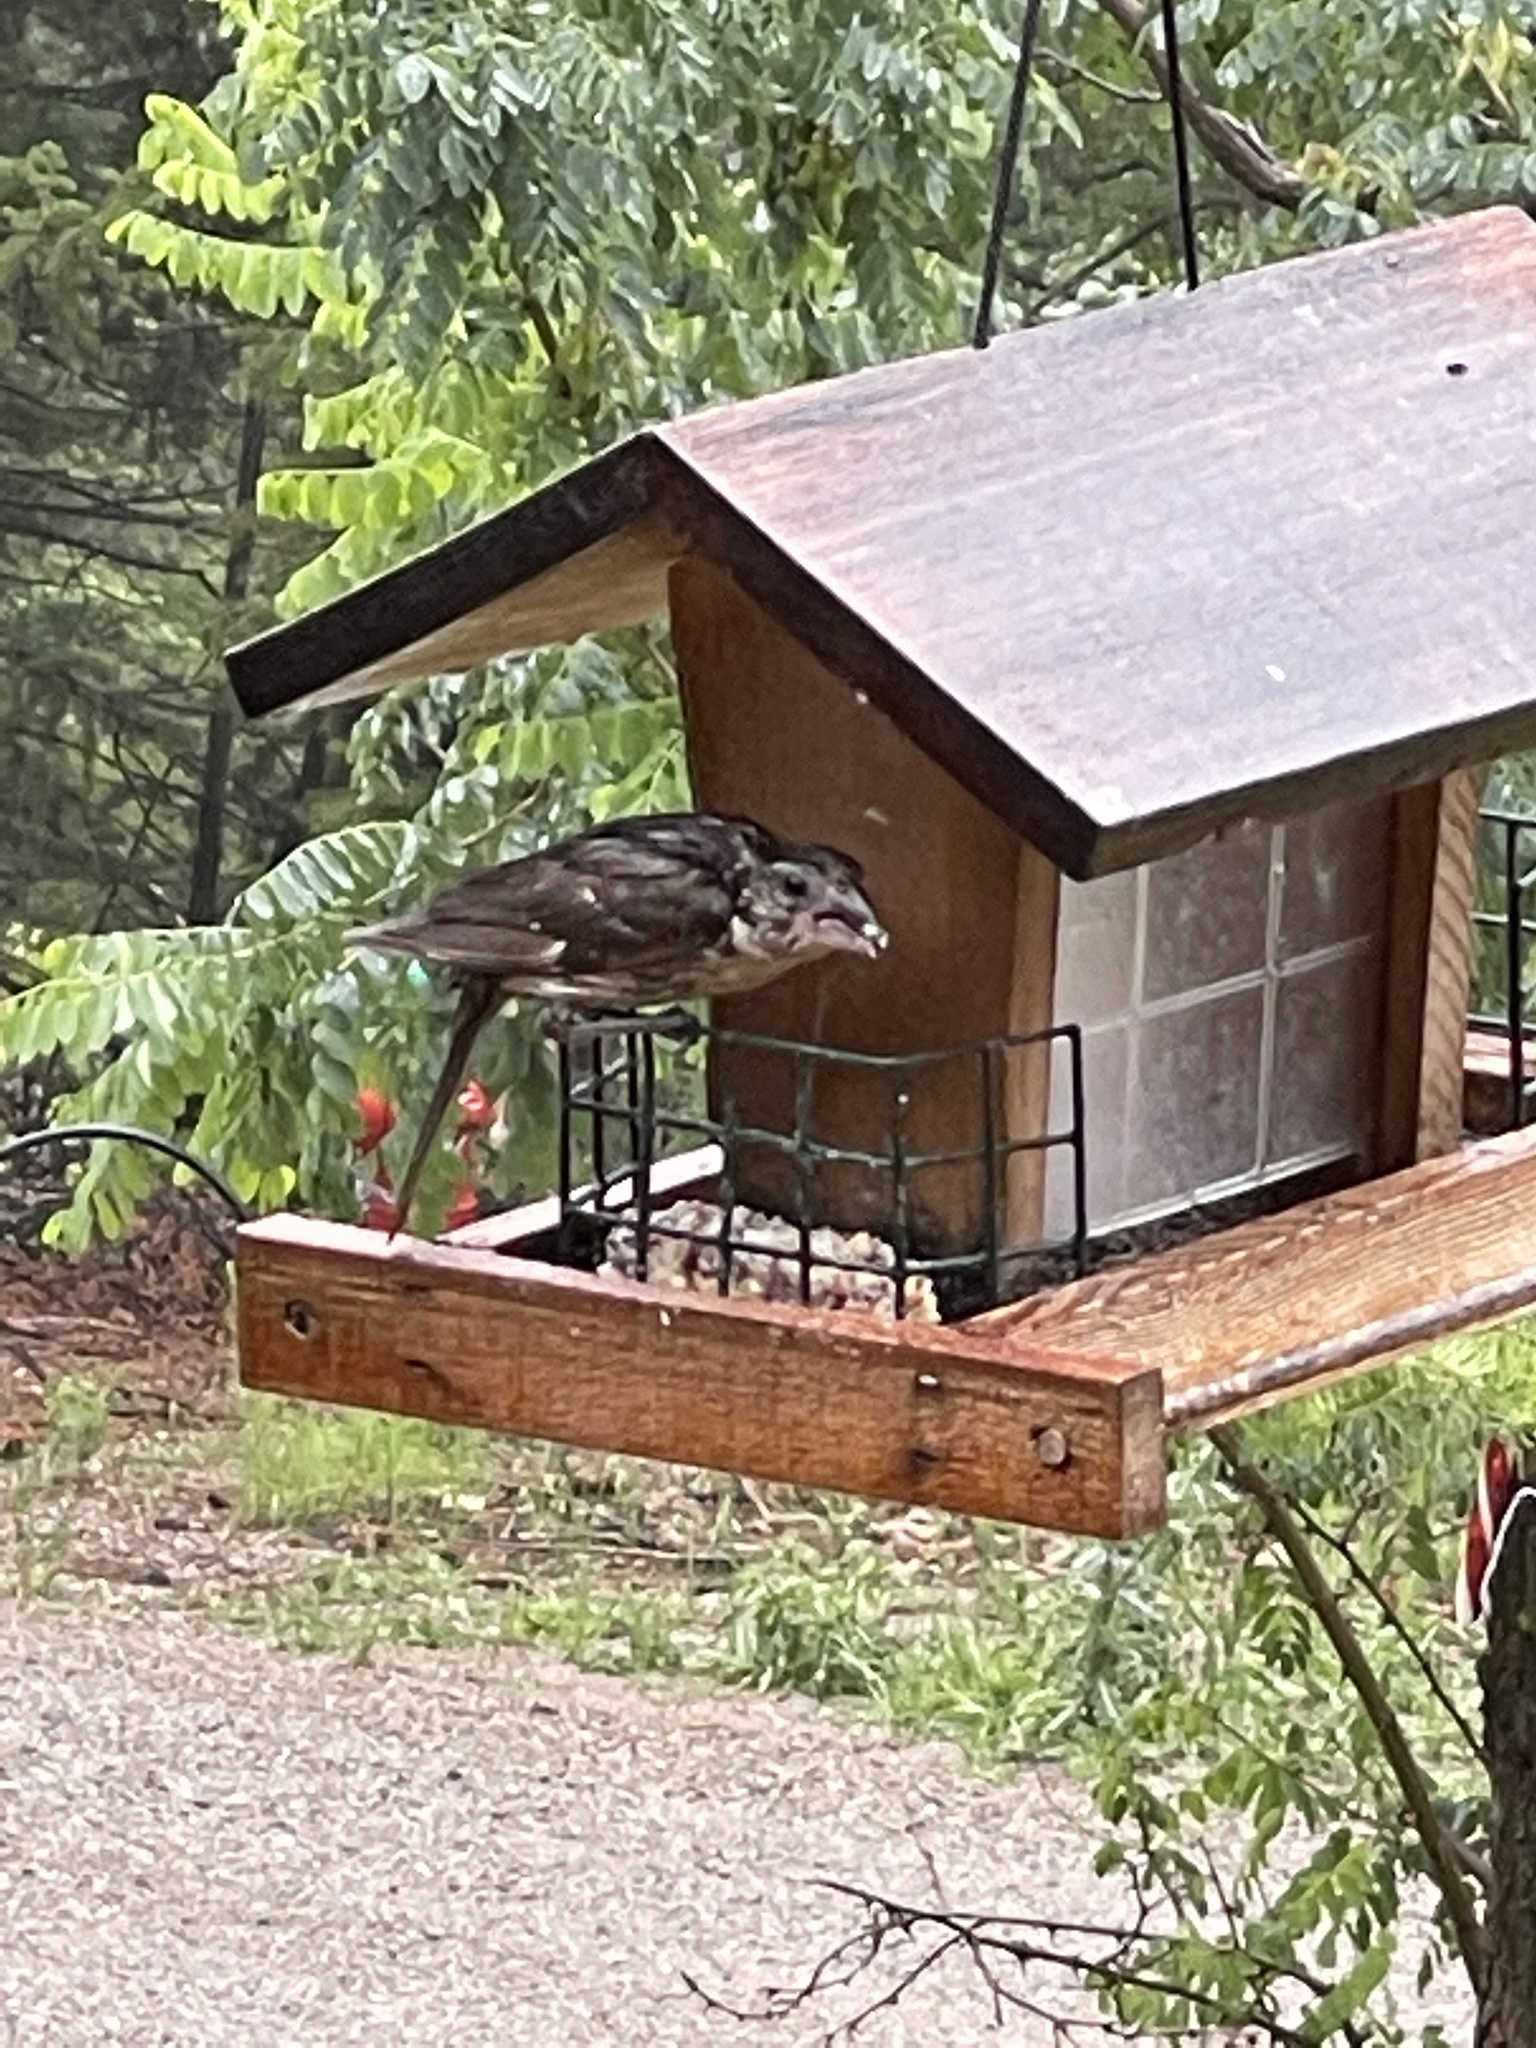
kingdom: Animalia
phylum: Chordata
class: Aves
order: Passeriformes
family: Cardinalidae
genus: Pheucticus
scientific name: Pheucticus melanocephalus
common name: Black-headed grosbeak
